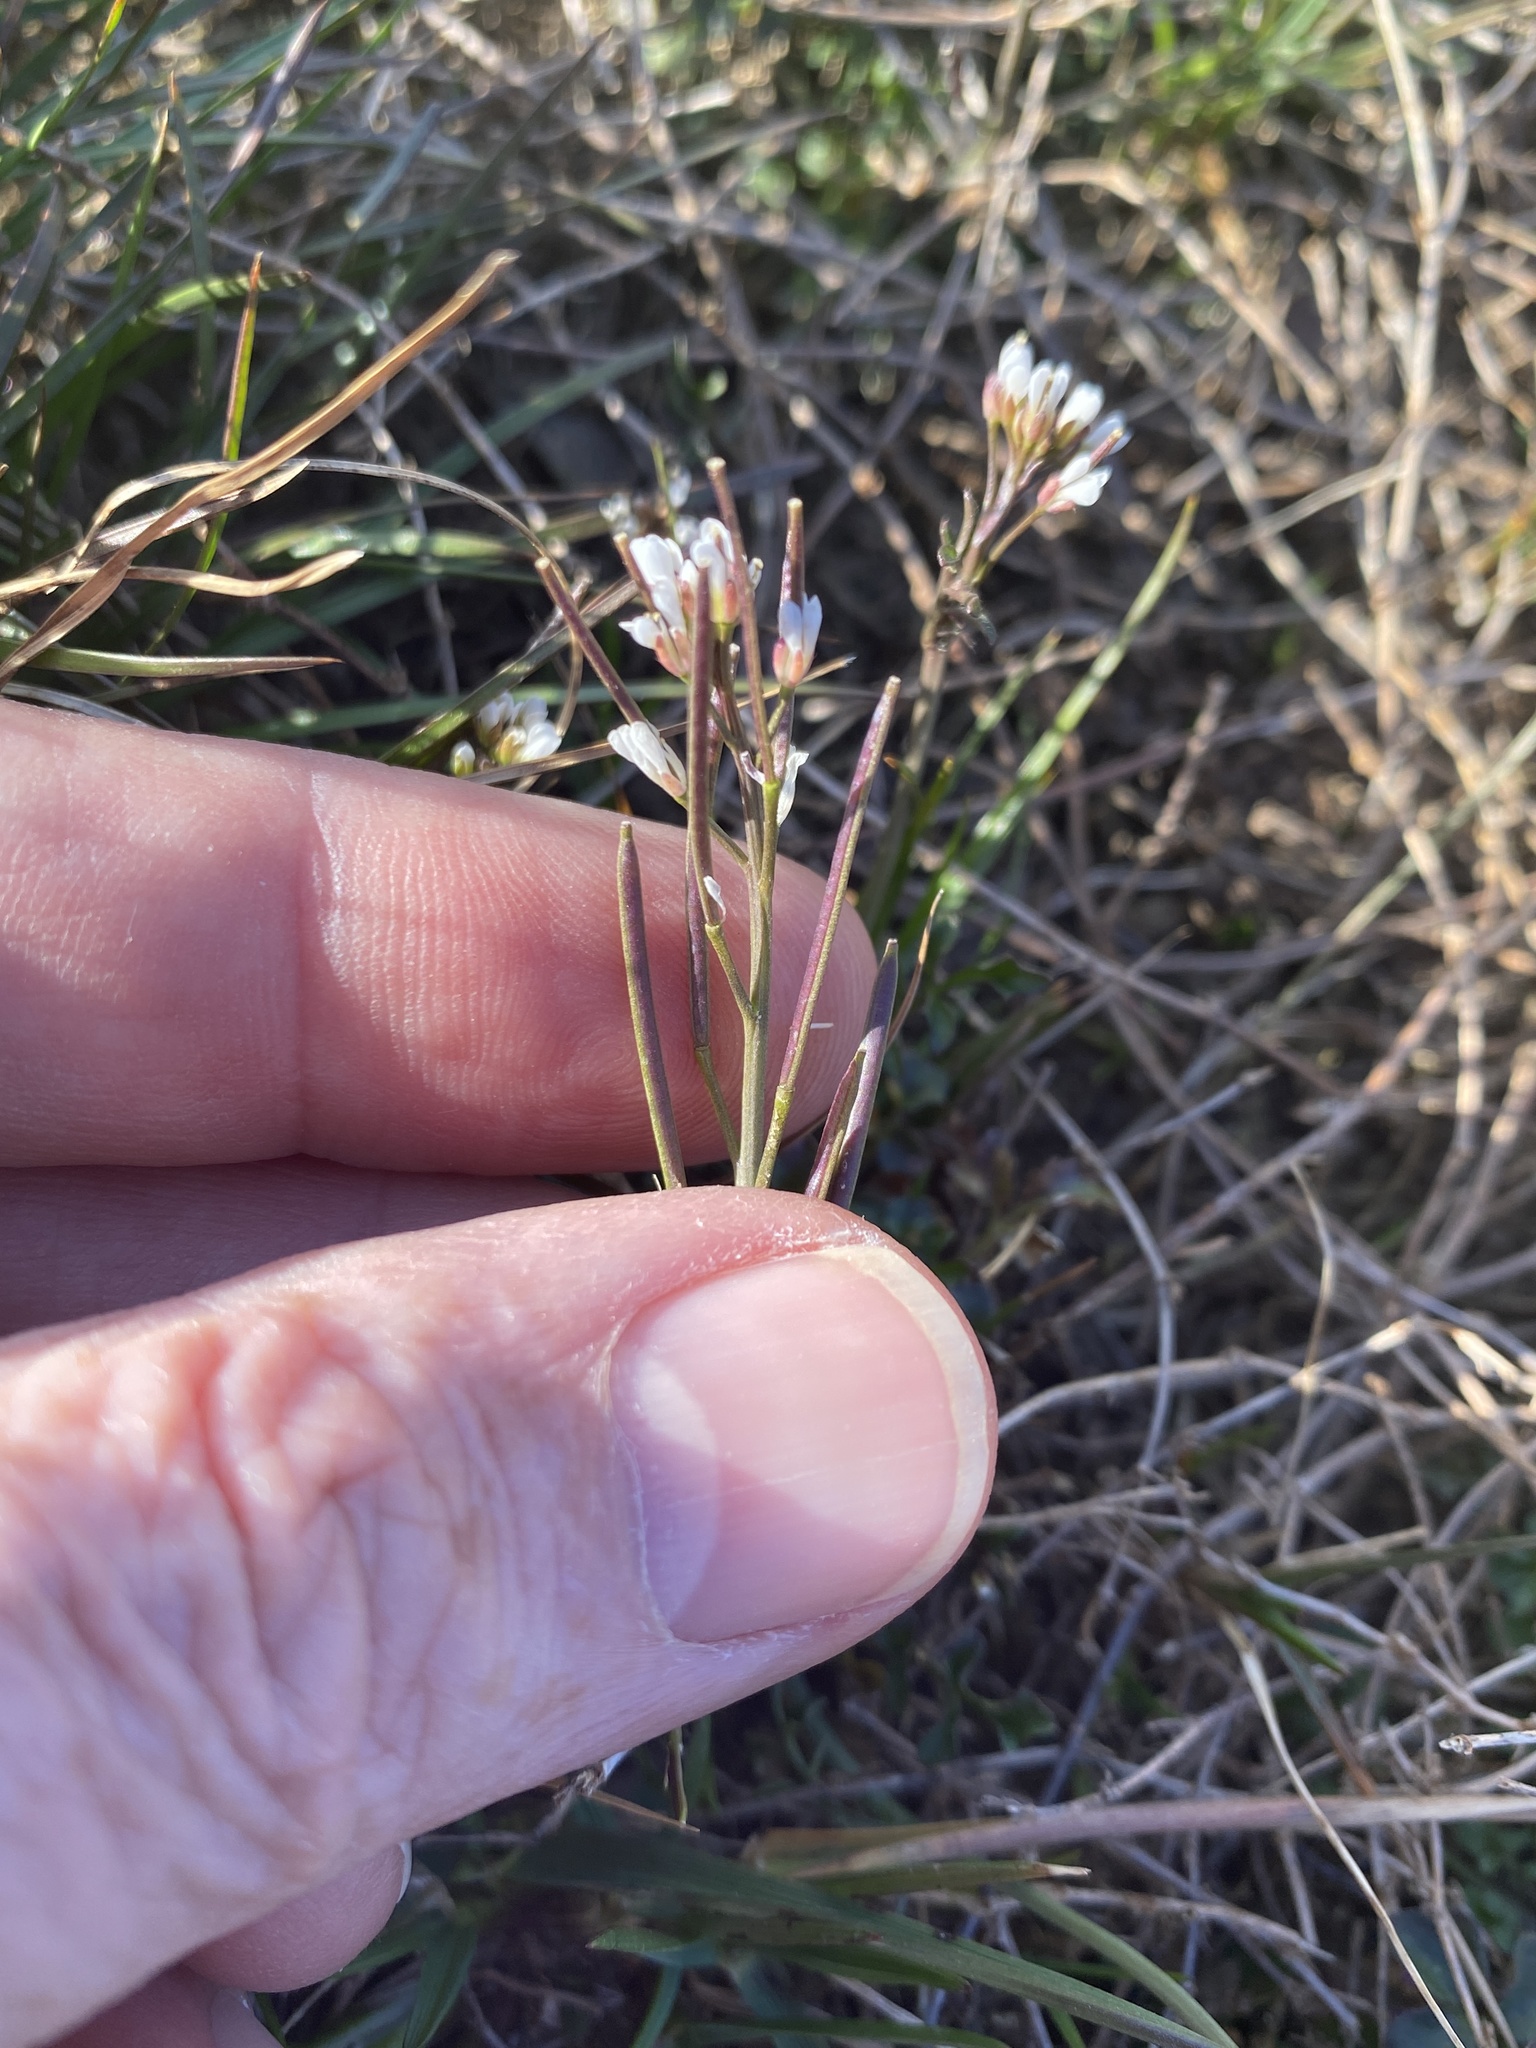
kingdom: Plantae
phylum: Tracheophyta
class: Magnoliopsida
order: Brassicales
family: Brassicaceae
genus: Cardamine
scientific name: Cardamine hirsuta
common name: Hairy bittercress
